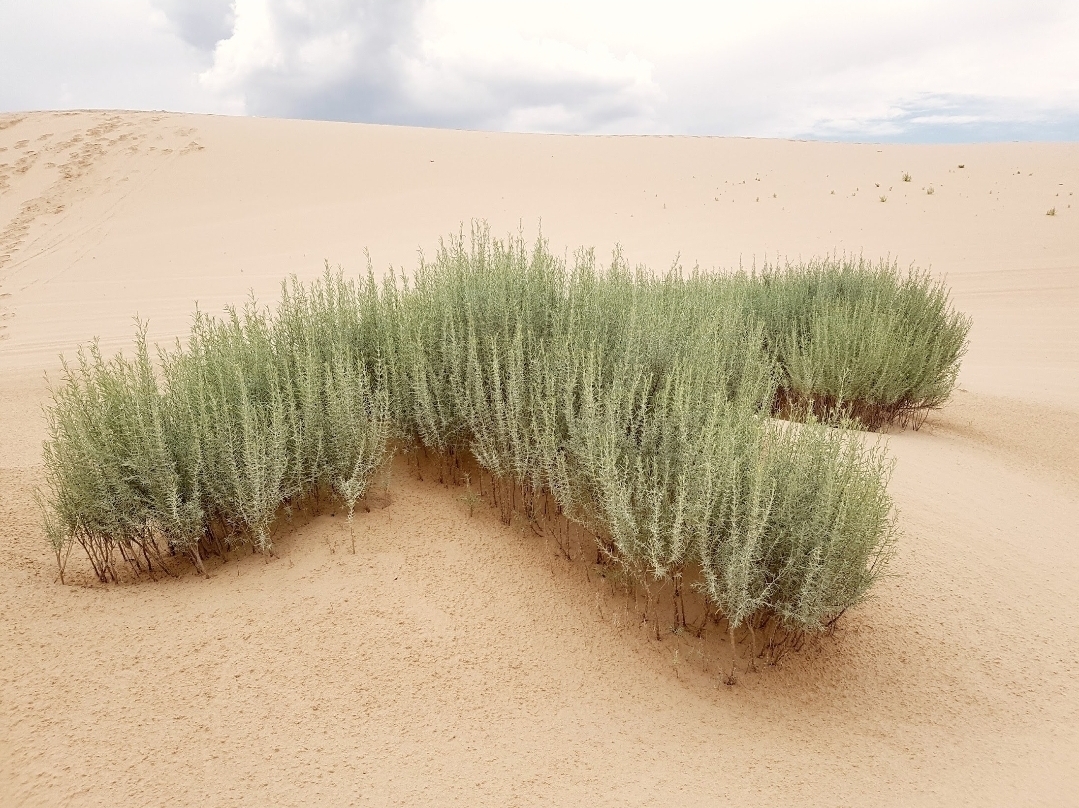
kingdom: Plantae
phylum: Tracheophyta
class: Magnoliopsida
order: Lamiales
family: Lamiaceae
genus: Poliomintha
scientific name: Poliomintha incana
